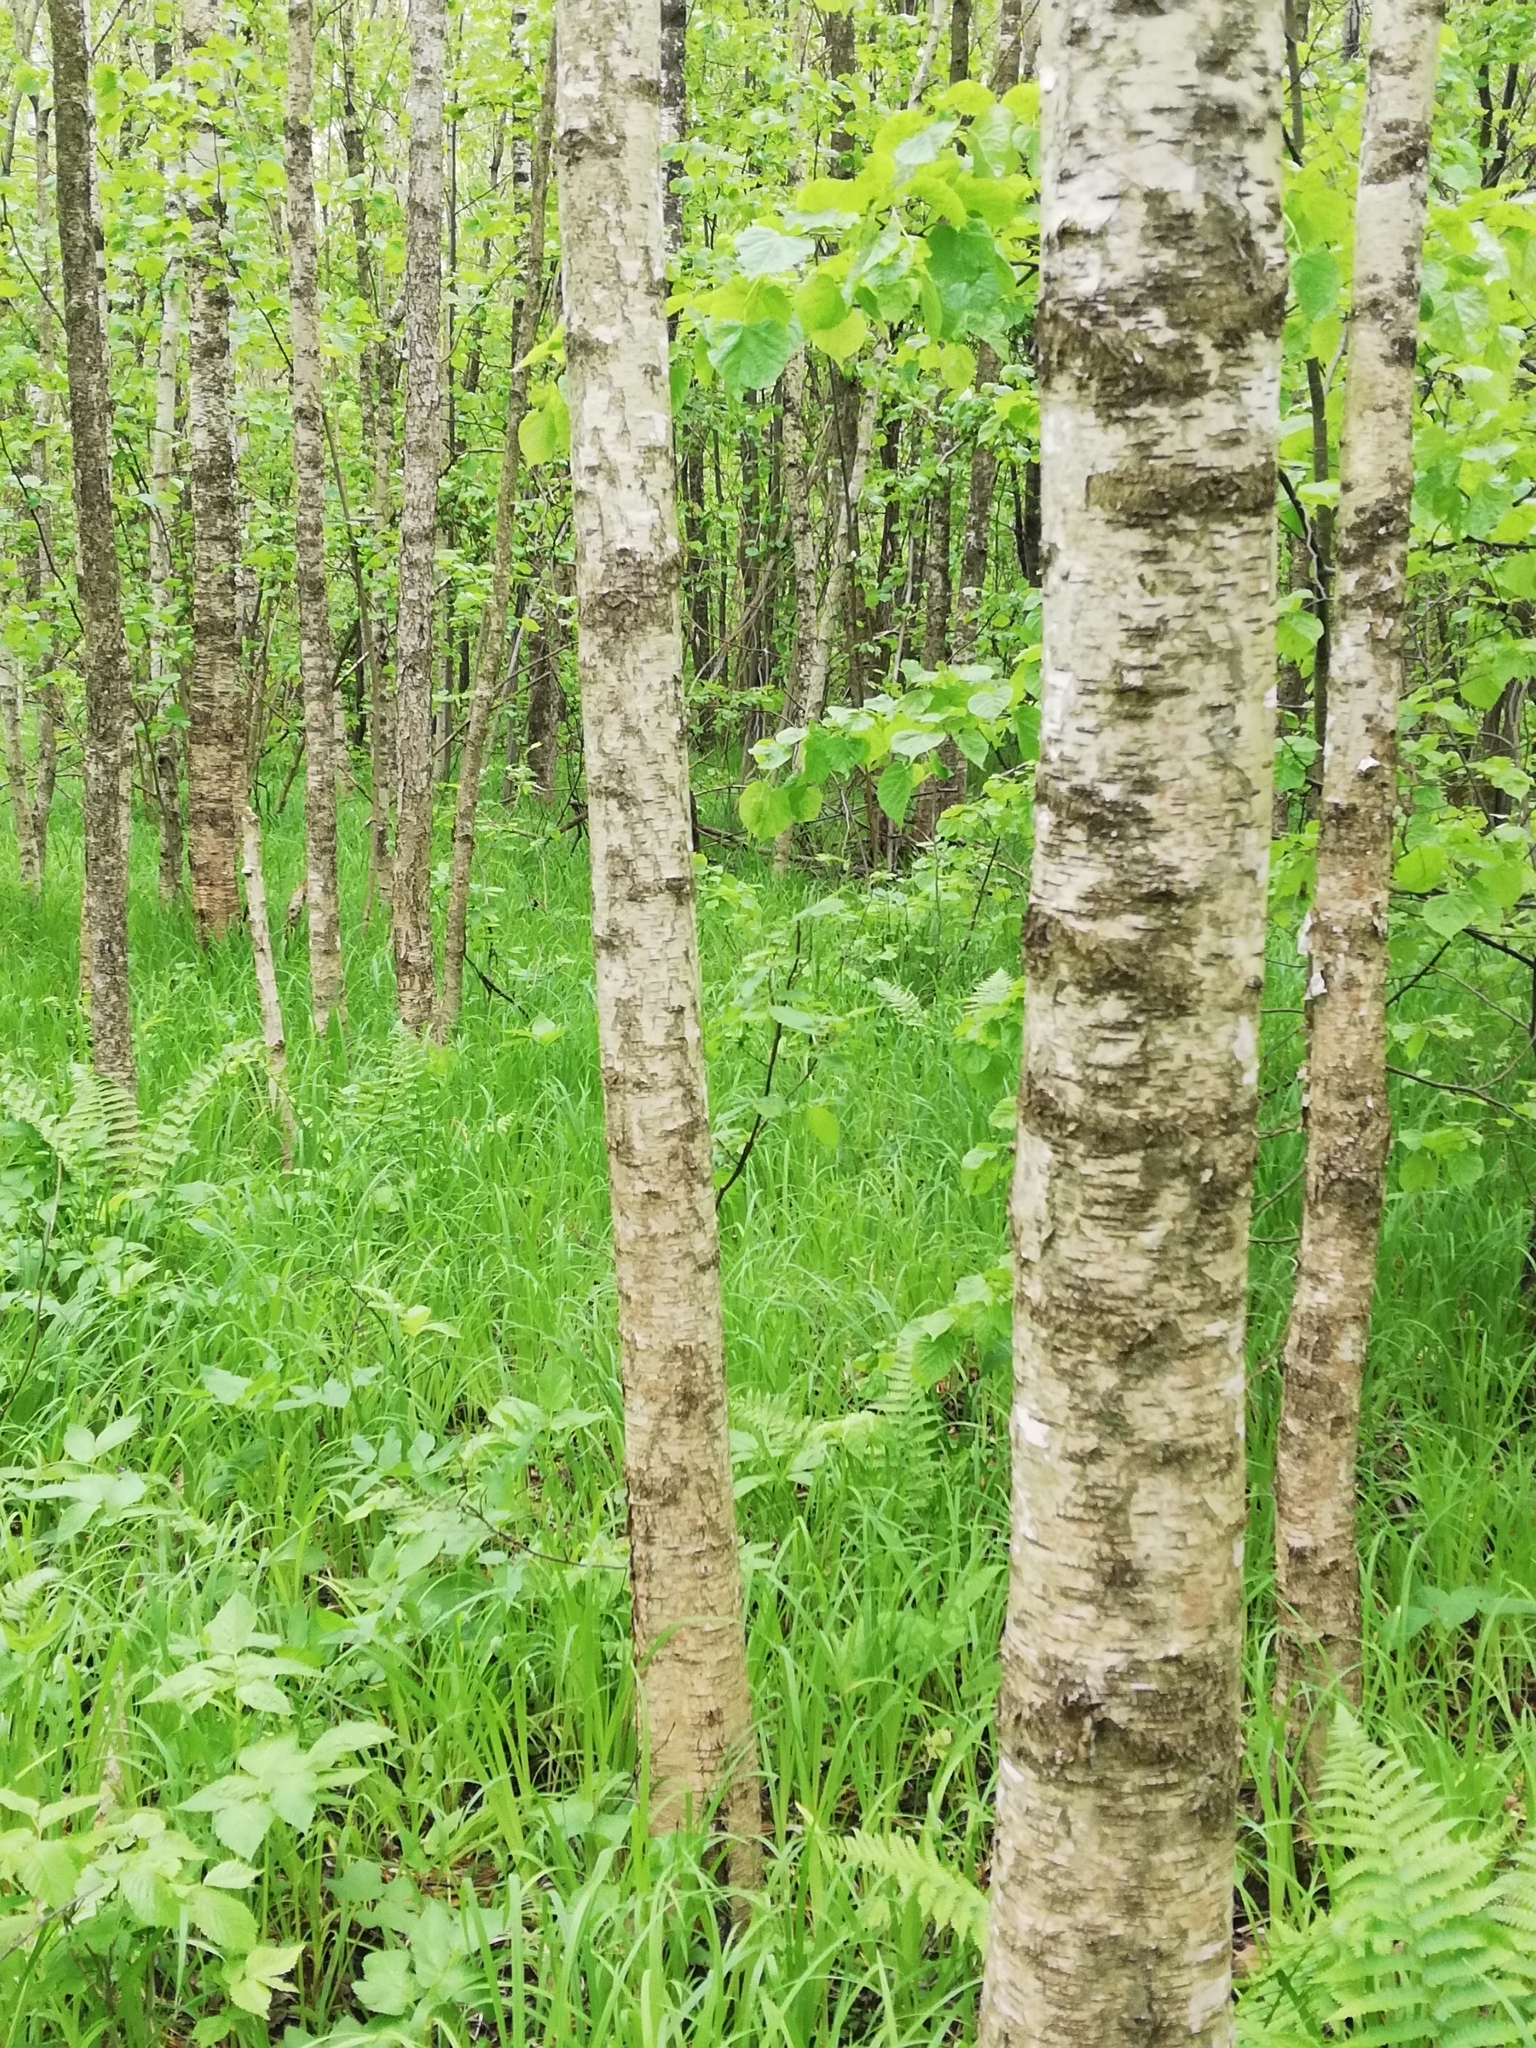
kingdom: Plantae
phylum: Tracheophyta
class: Magnoliopsida
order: Fagales
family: Betulaceae
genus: Betula
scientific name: Betula pubescens
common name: Downy birch
